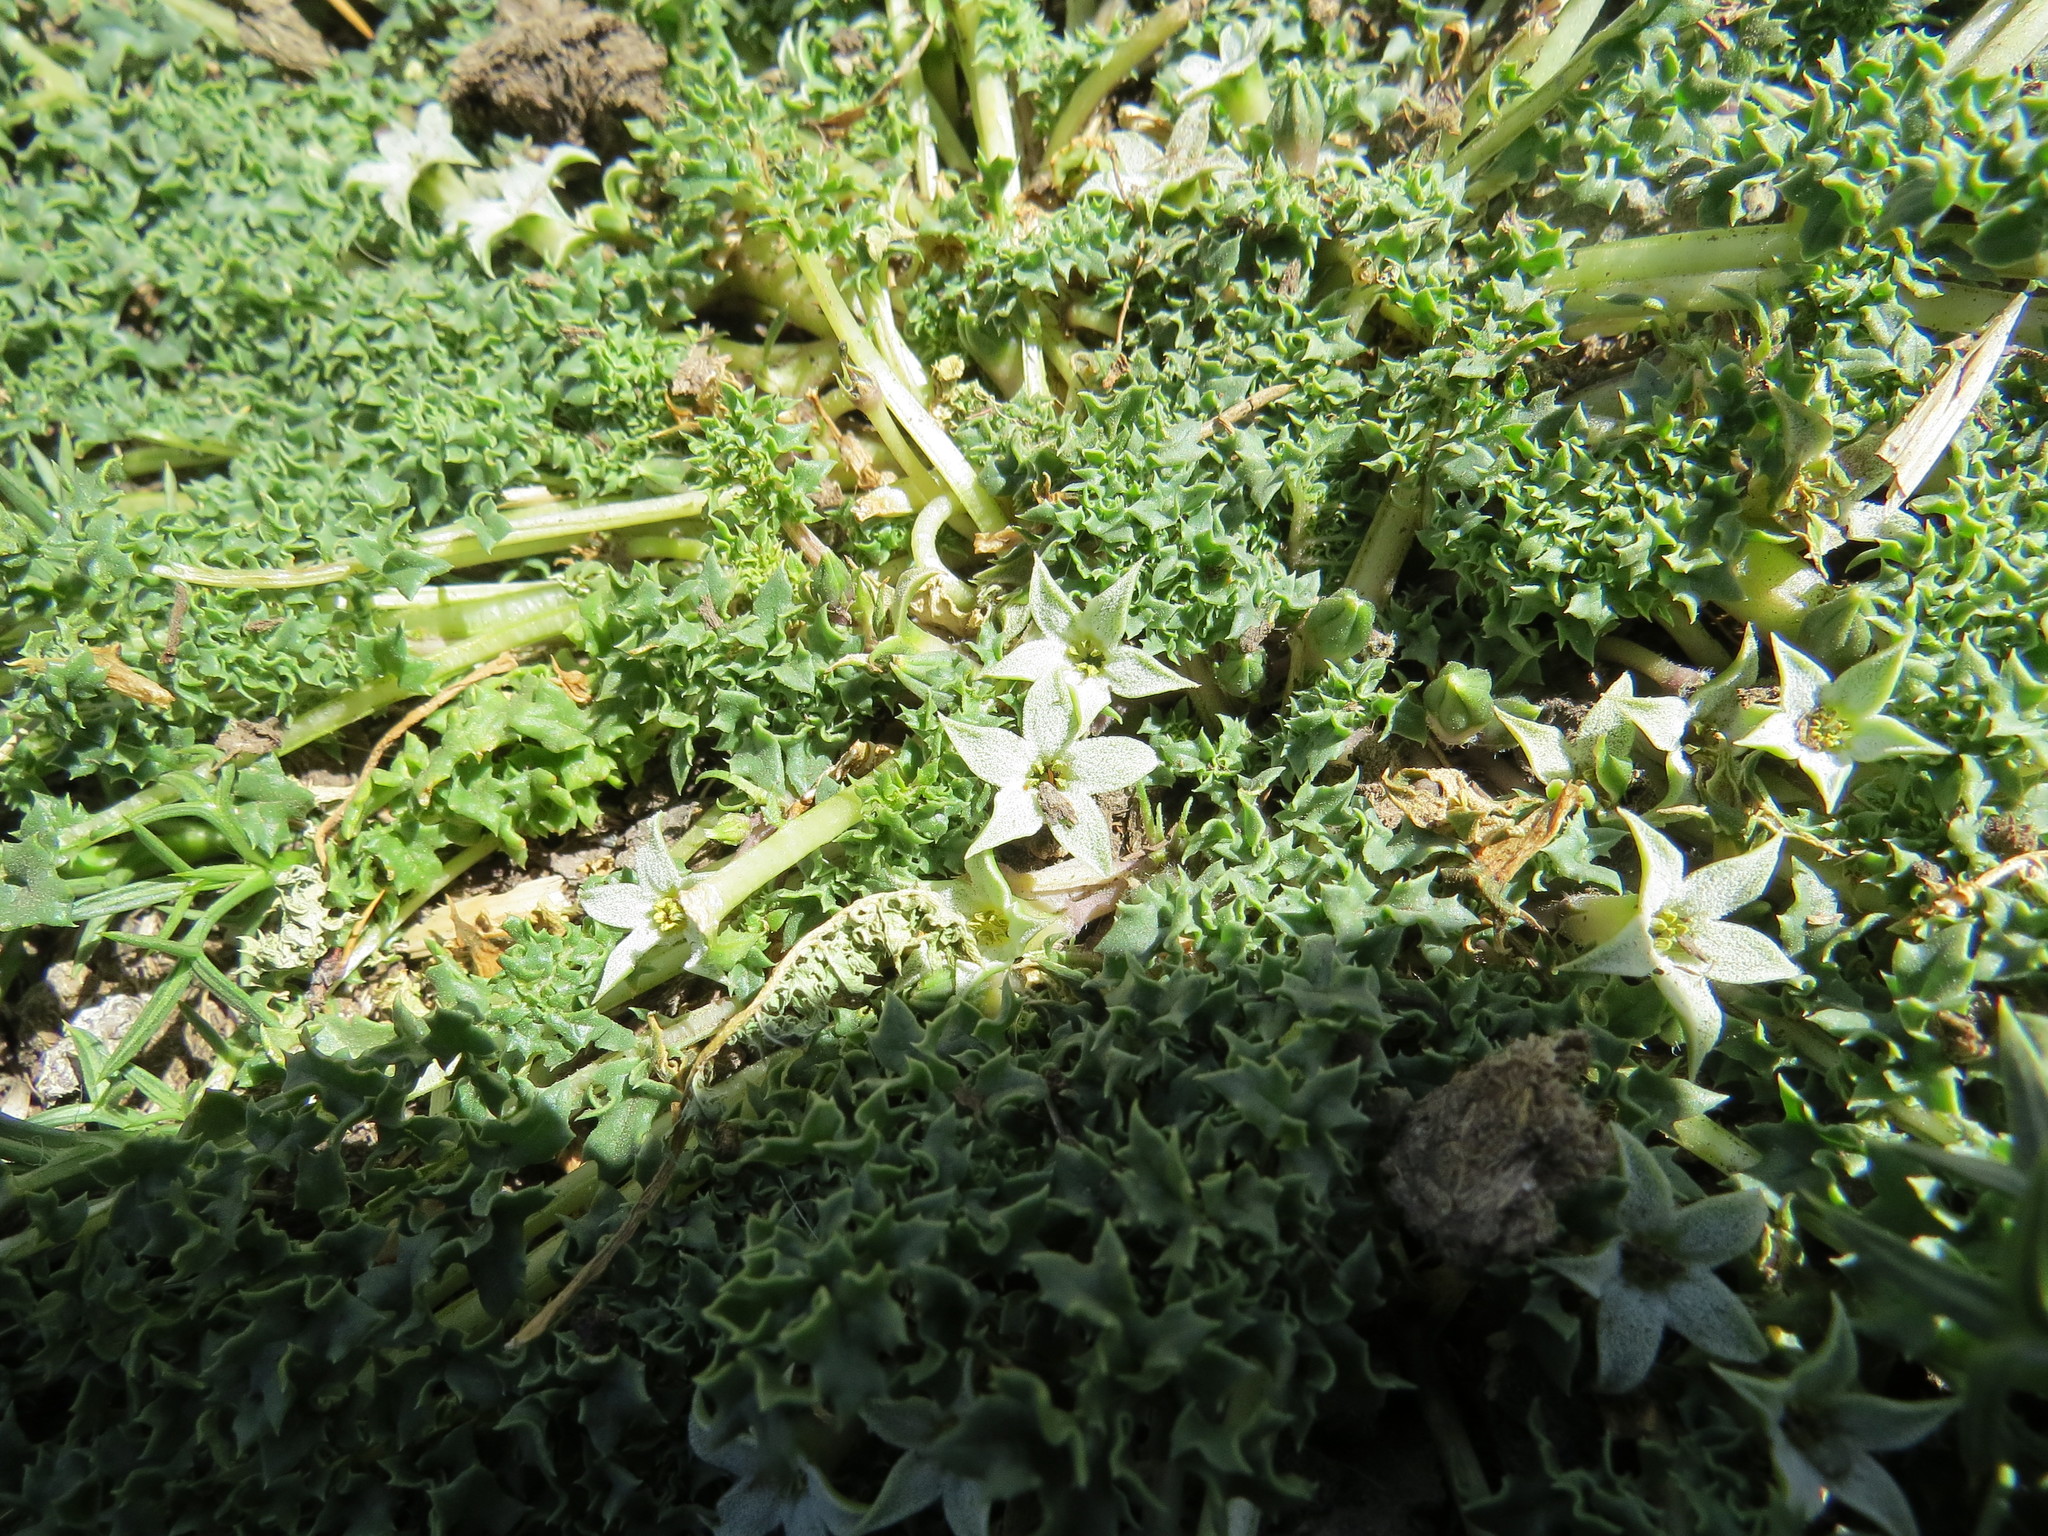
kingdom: Plantae
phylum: Tracheophyta
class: Magnoliopsida
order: Solanales
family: Solanaceae
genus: Jaborosa
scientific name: Jaborosa caulescens
